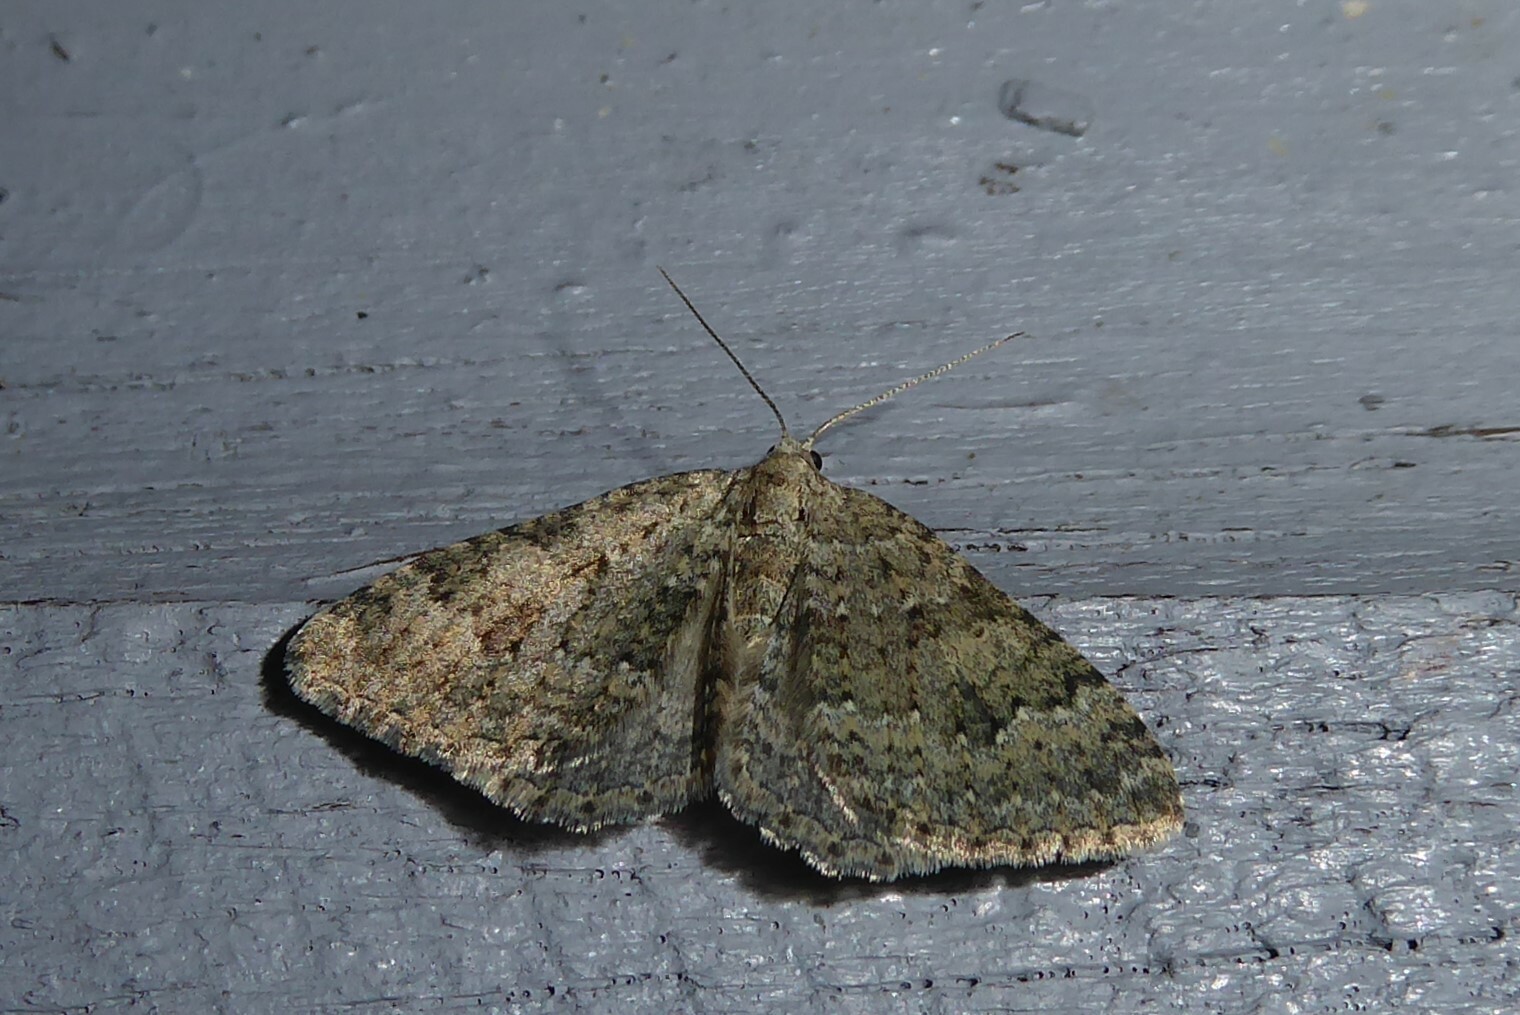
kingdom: Animalia
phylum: Arthropoda
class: Insecta
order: Lepidoptera
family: Geometridae
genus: Helastia
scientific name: Helastia corcularia
